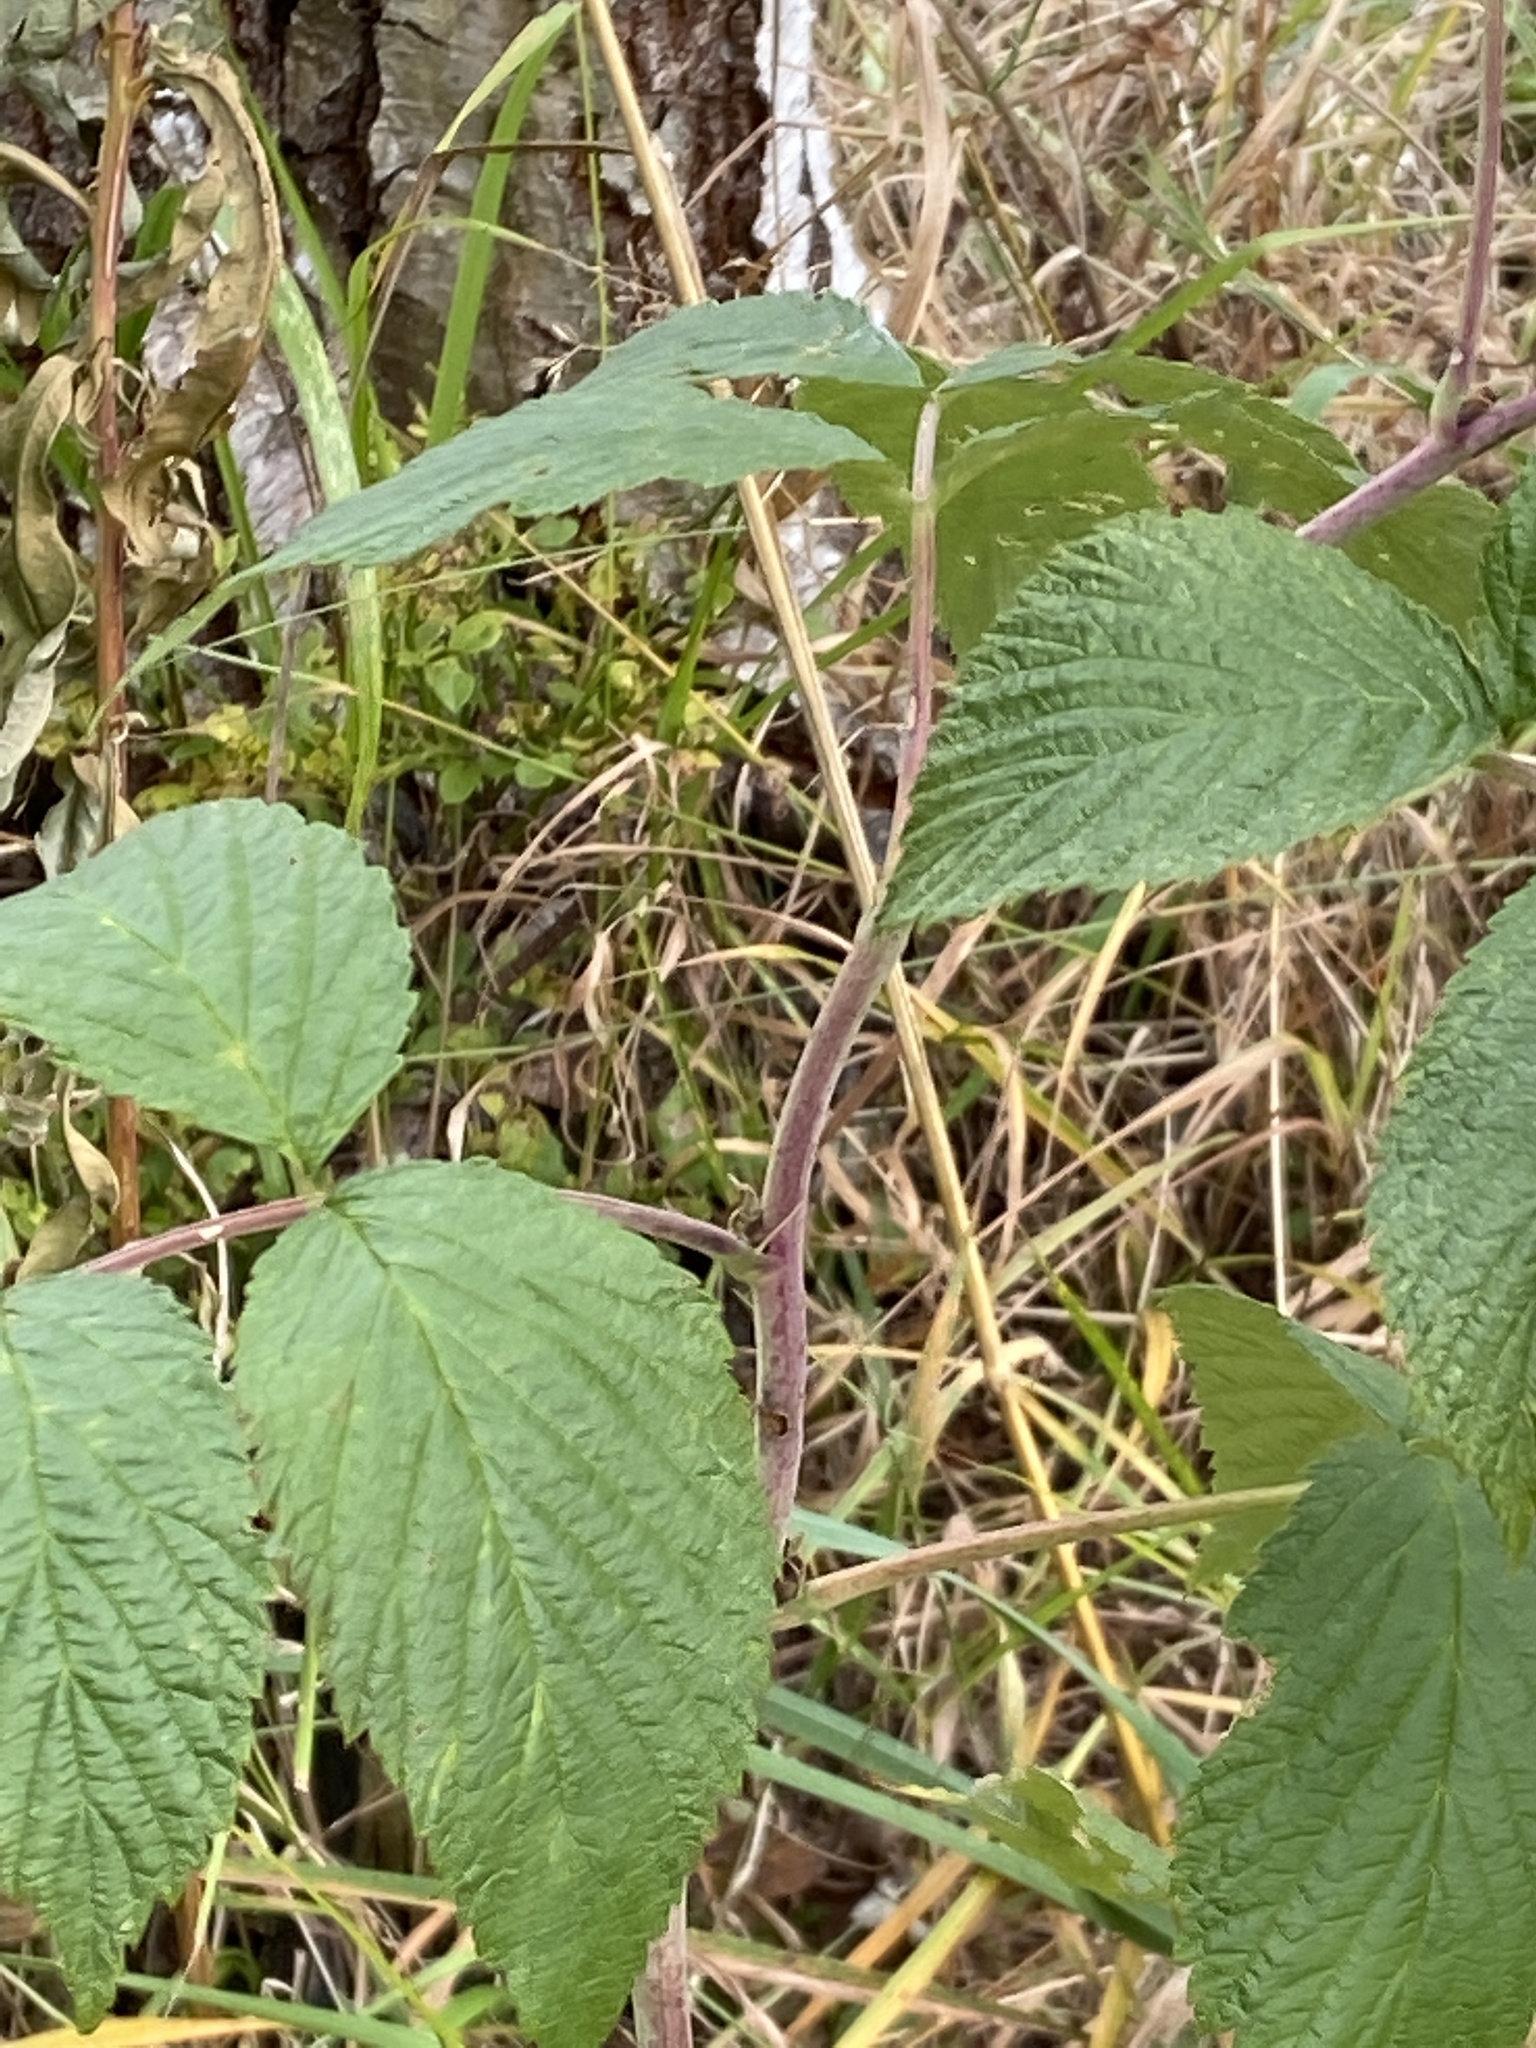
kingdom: Animalia
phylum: Arthropoda
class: Insecta
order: Hemiptera
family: Aphrophoridae
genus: Aphrophora
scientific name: Aphrophora alni
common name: European alder spittlebug
